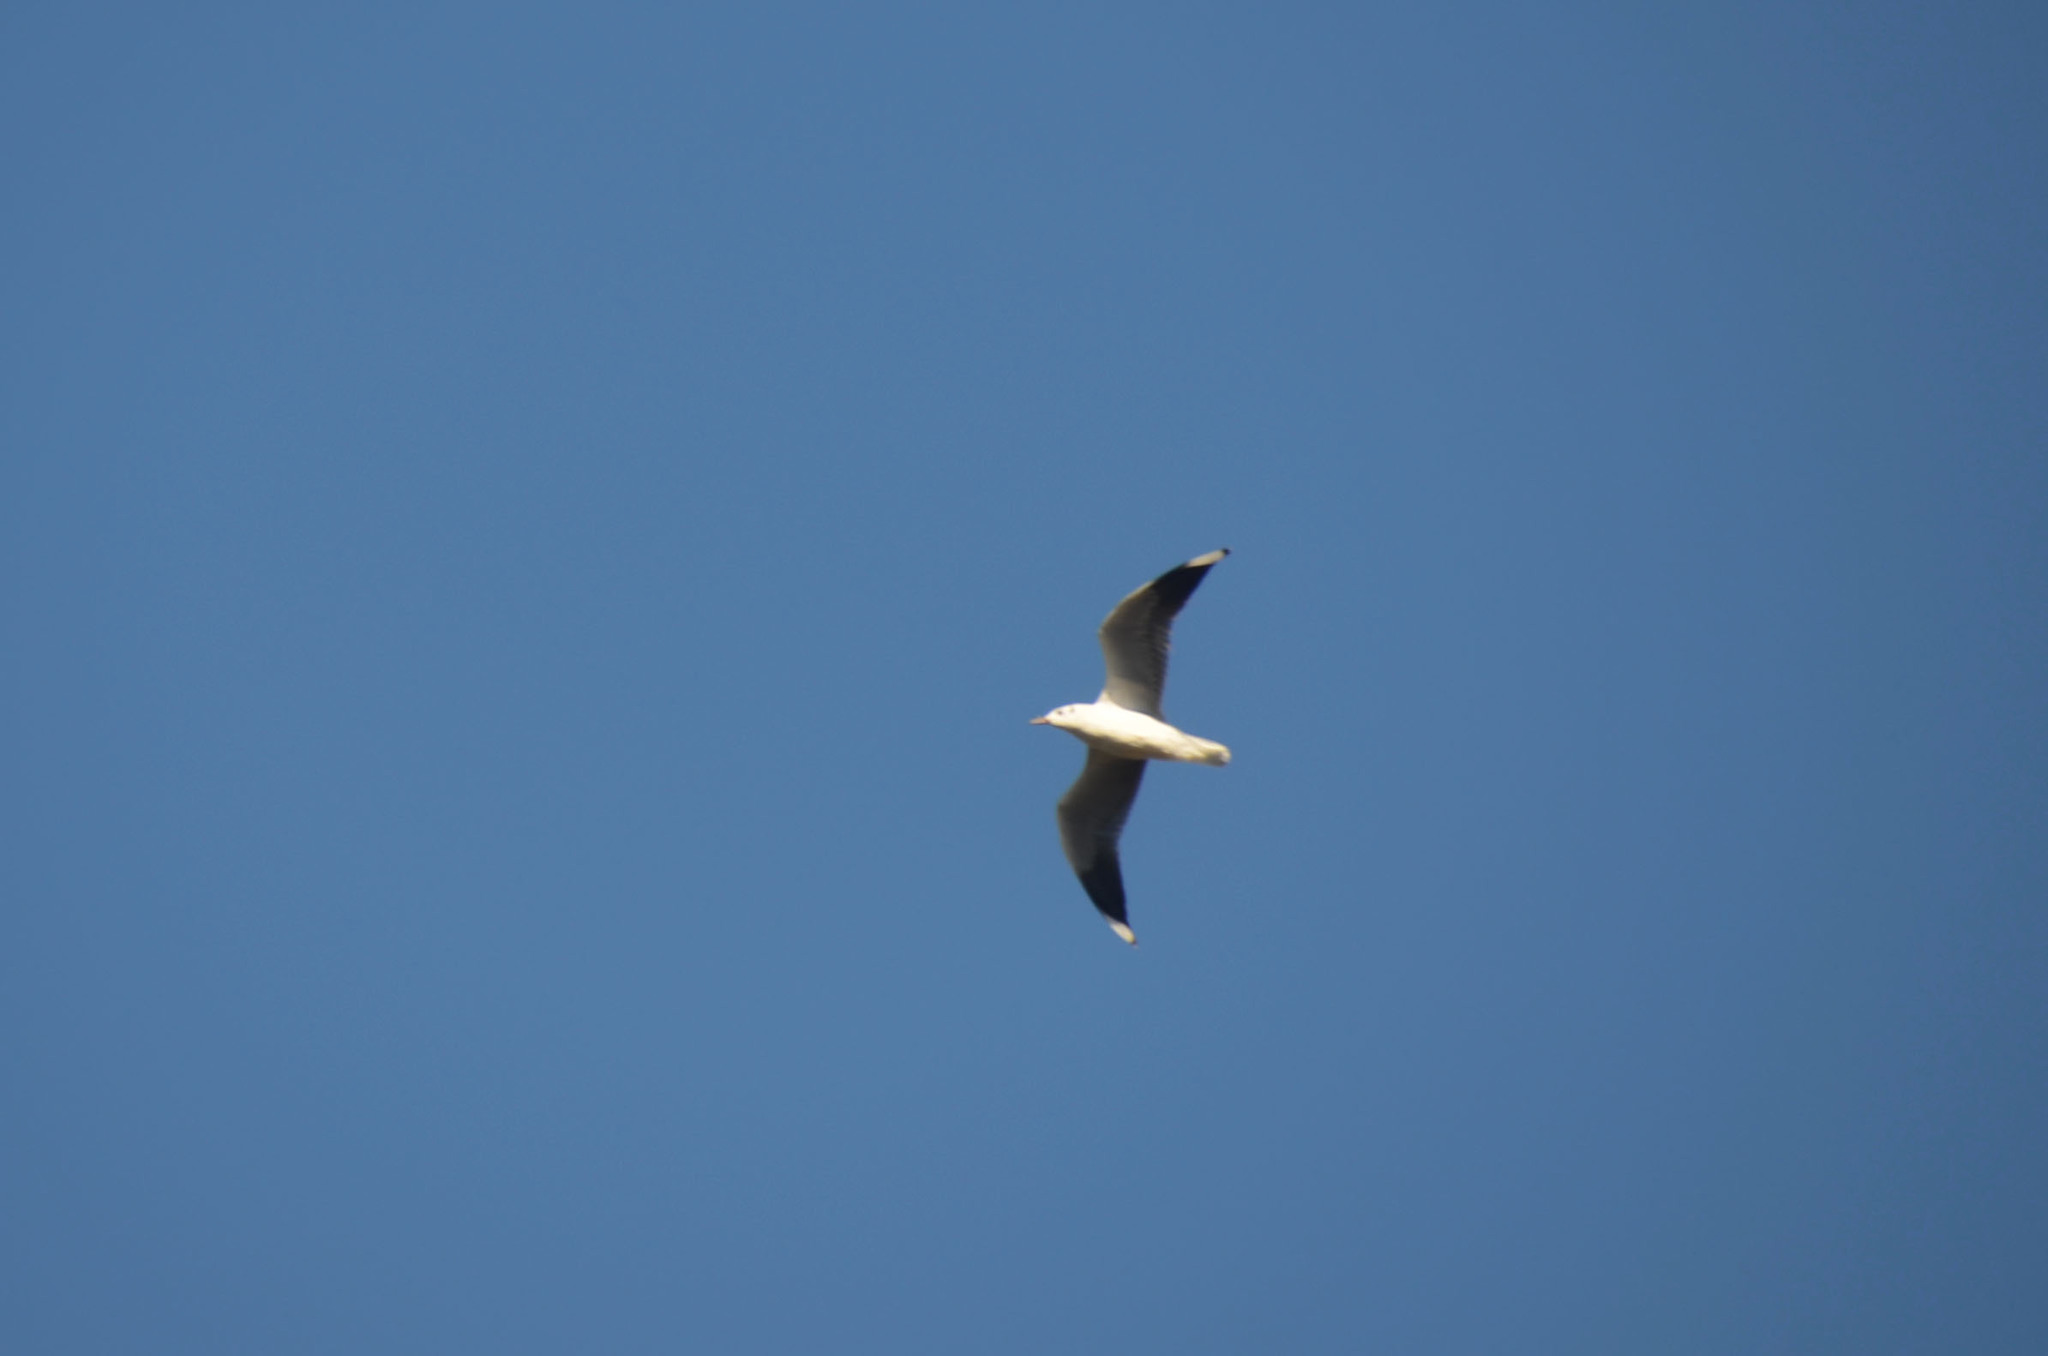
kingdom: Animalia
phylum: Chordata
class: Aves
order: Charadriiformes
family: Laridae
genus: Chroicocephalus
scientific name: Chroicocephalus maculipennis
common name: Brown-hooded gull
